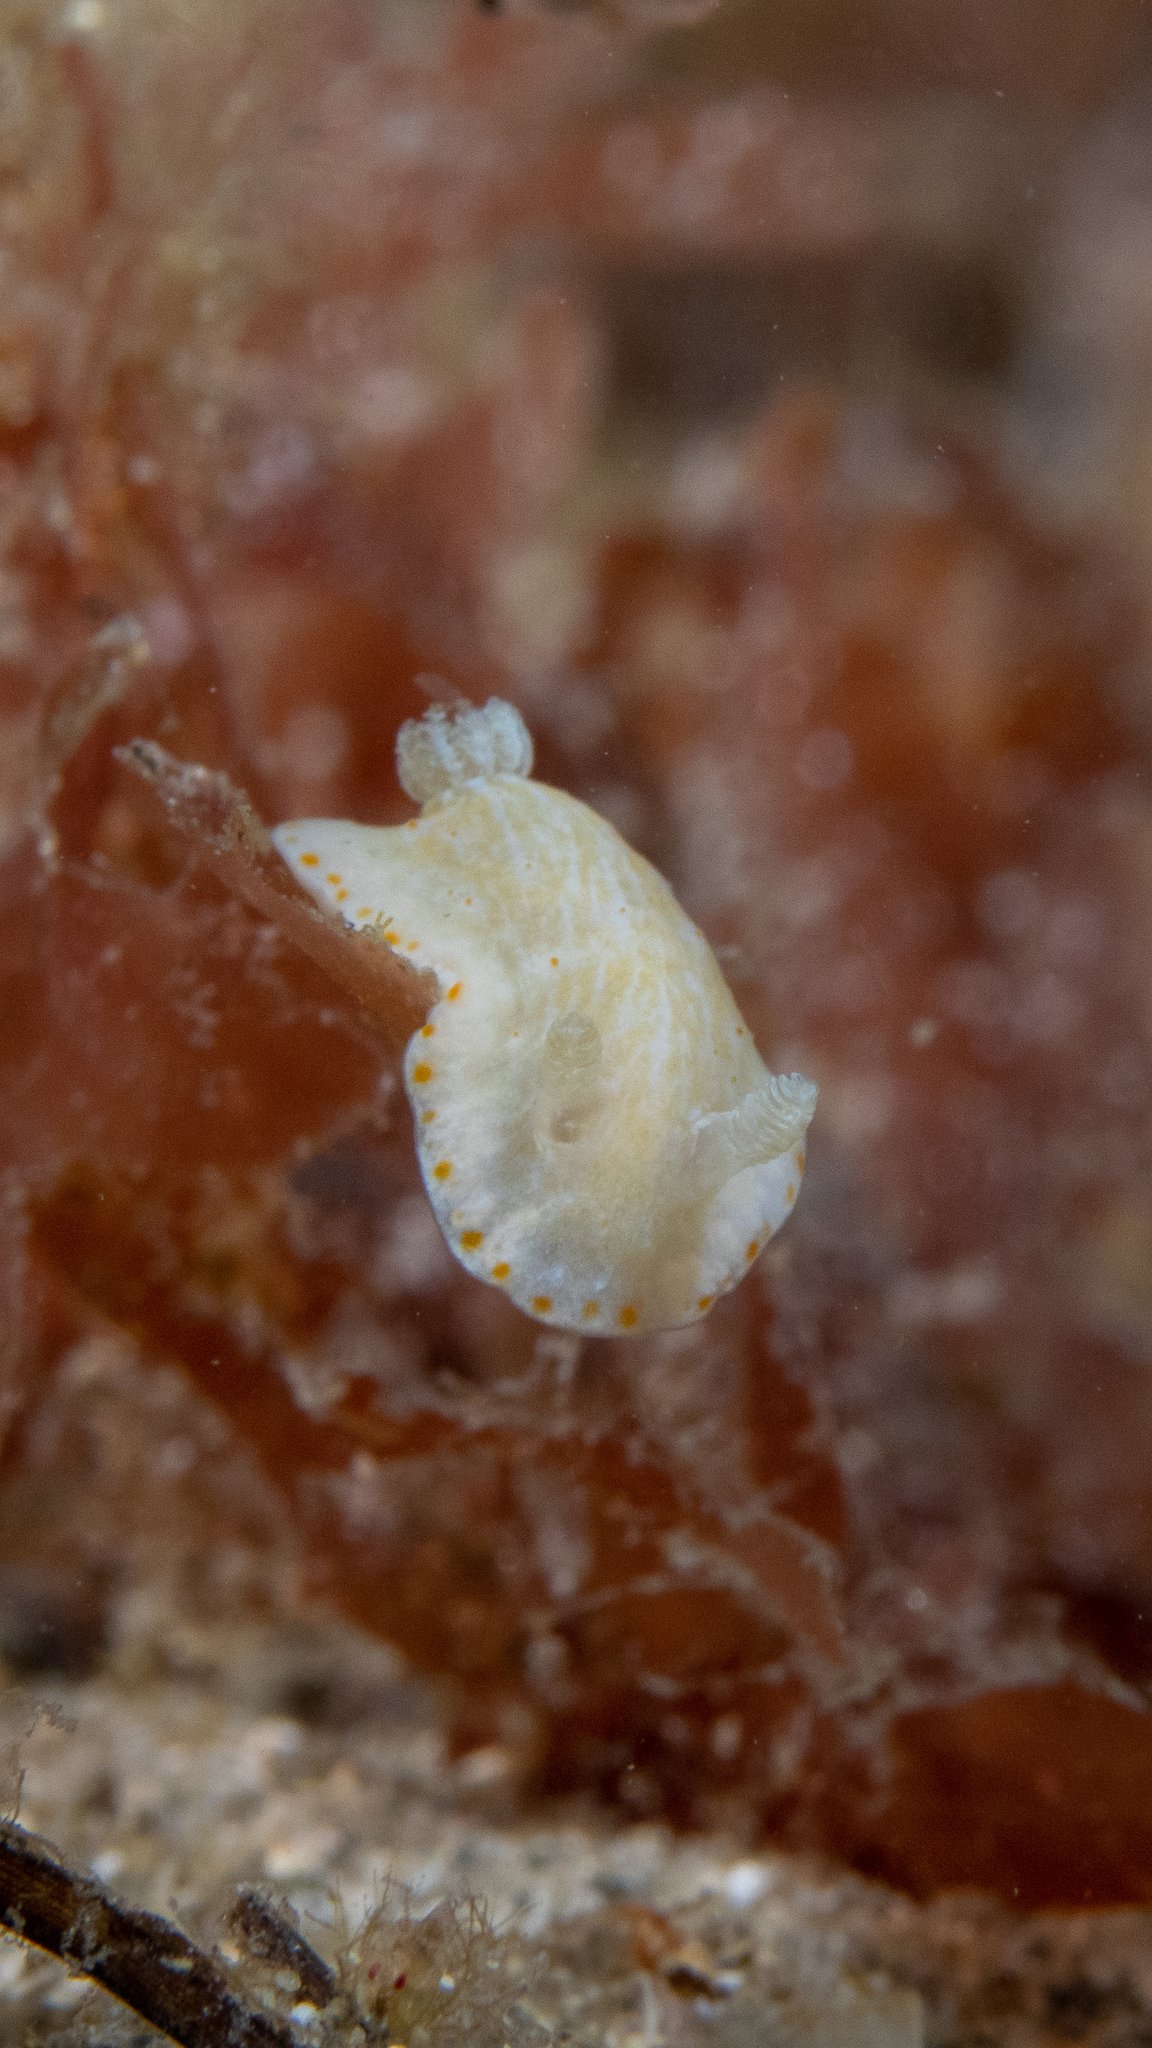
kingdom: Animalia
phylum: Mollusca
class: Gastropoda
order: Nudibranchia
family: Chromodorididae
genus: Goniobranchus
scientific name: Goniobranchus epicurius
